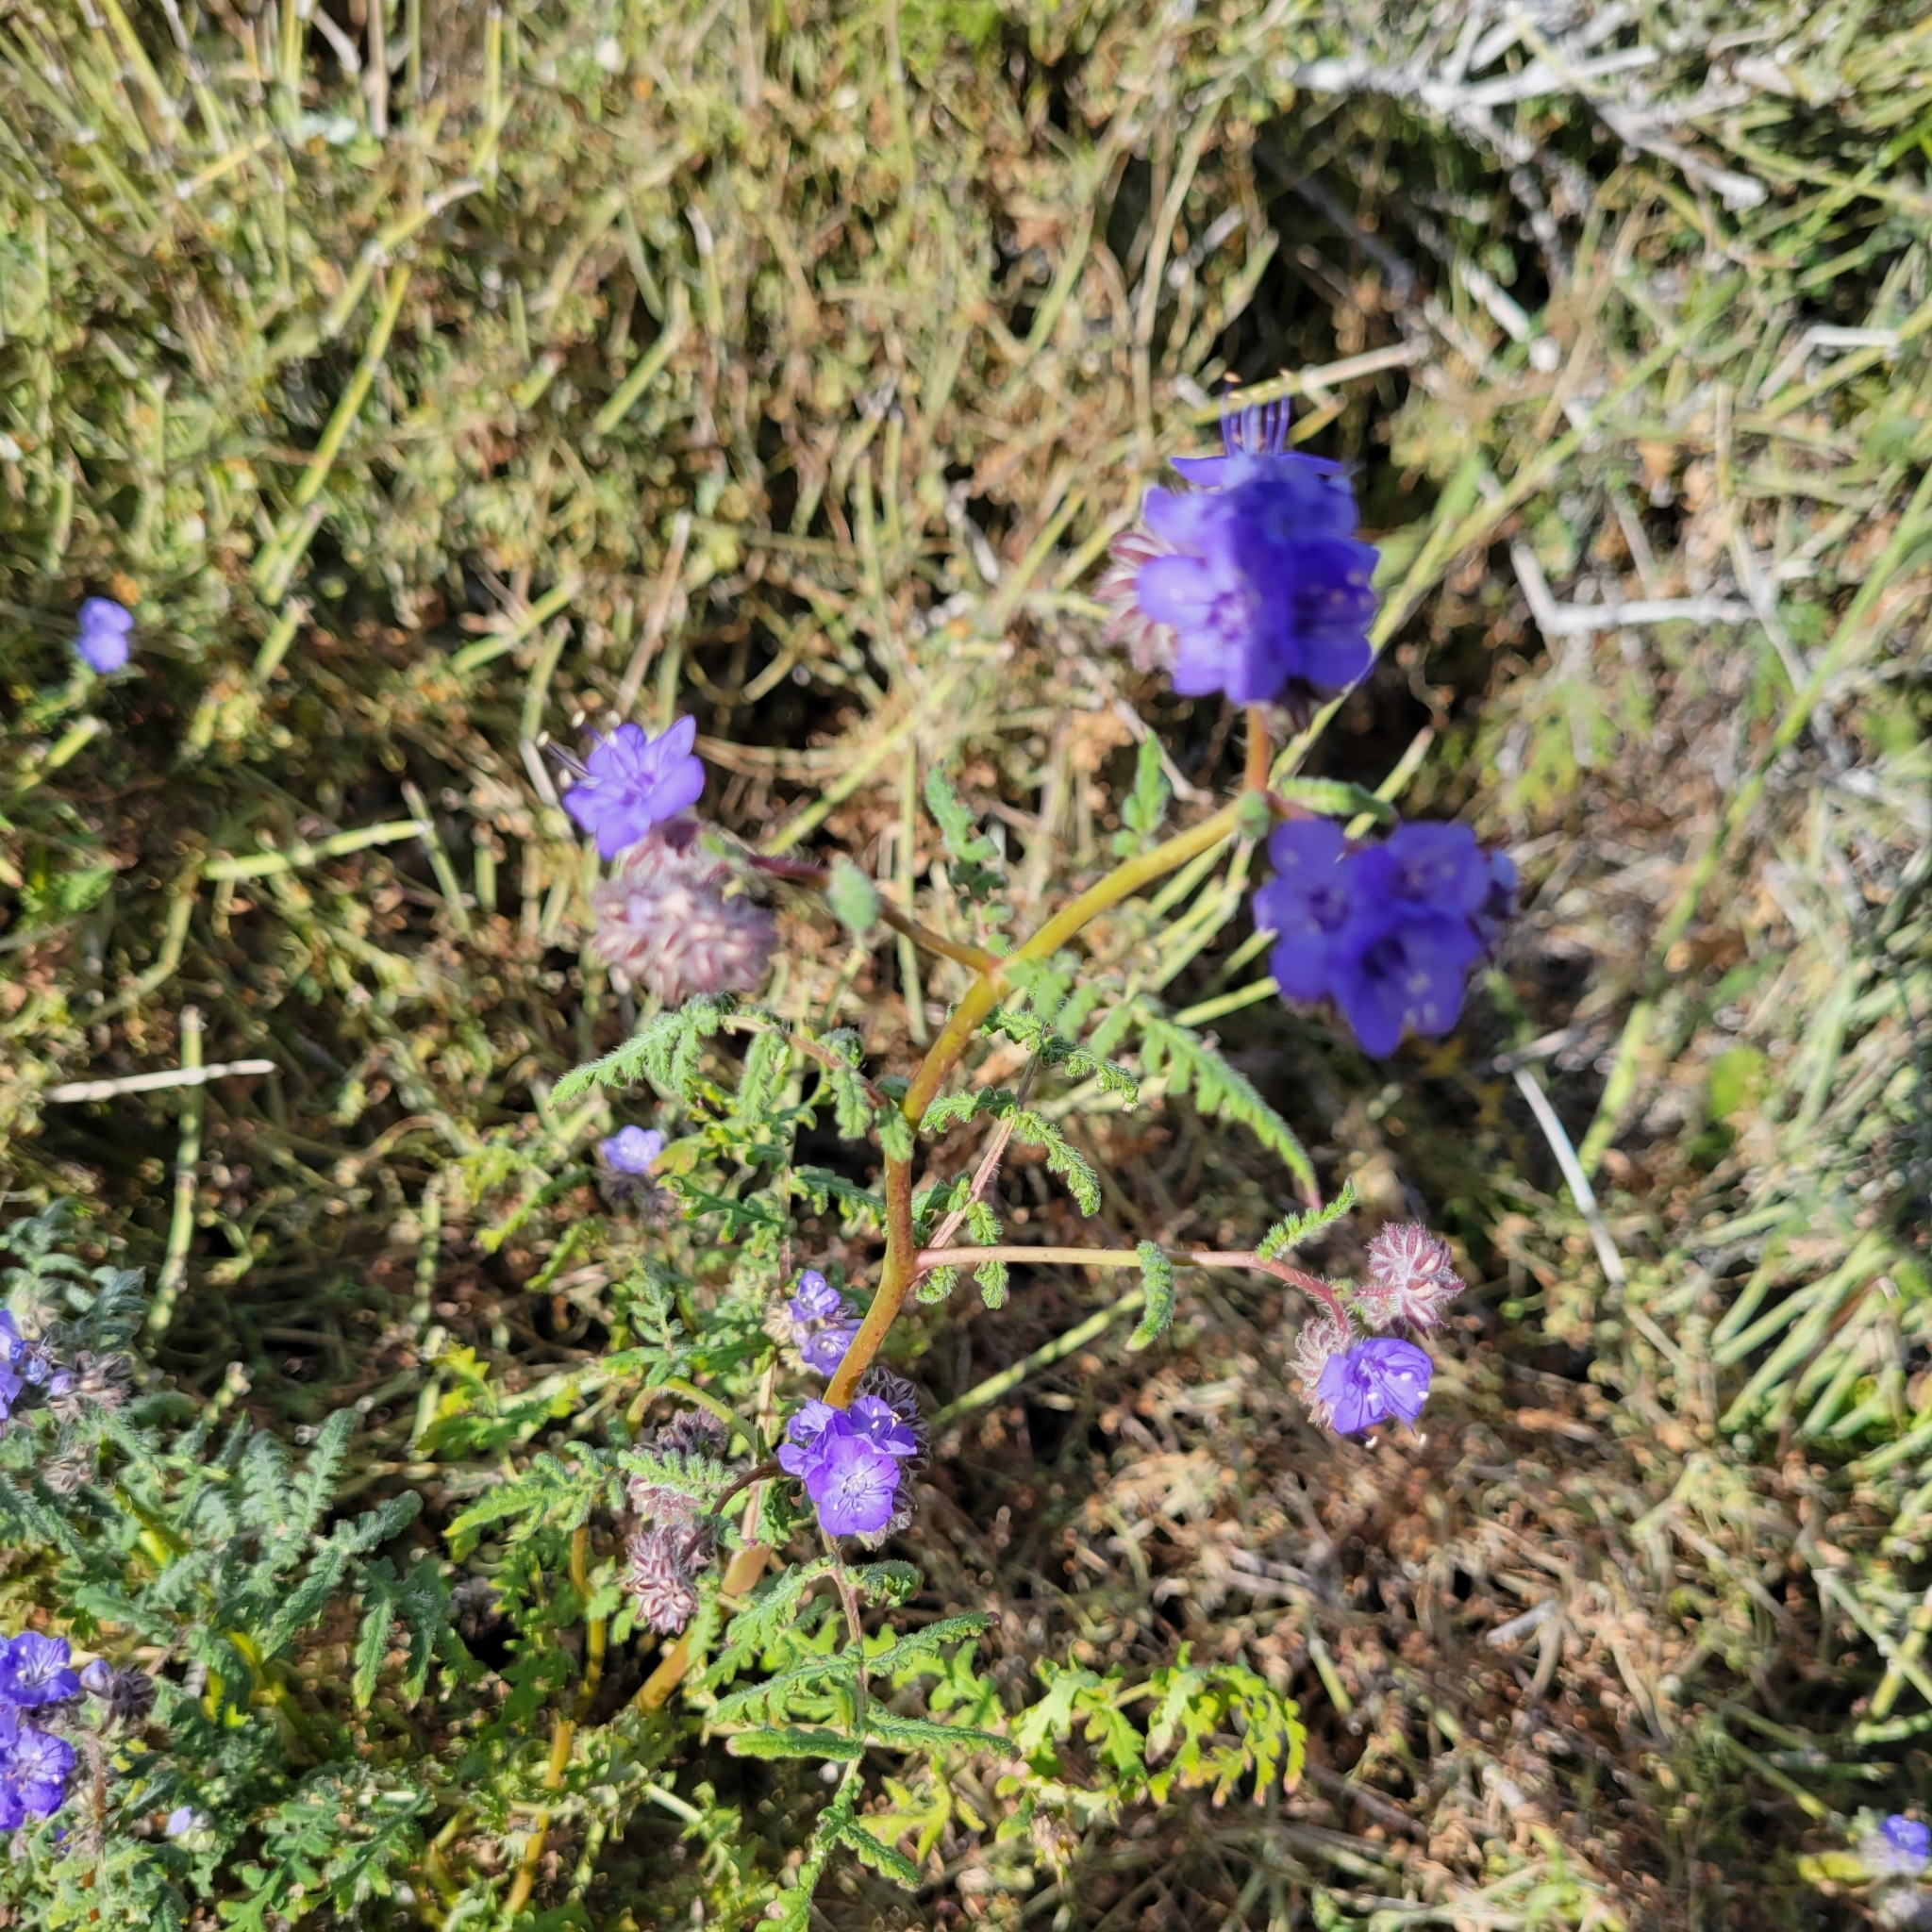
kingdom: Plantae
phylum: Tracheophyta
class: Magnoliopsida
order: Boraginales
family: Hydrophyllaceae
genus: Phacelia
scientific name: Phacelia distans
